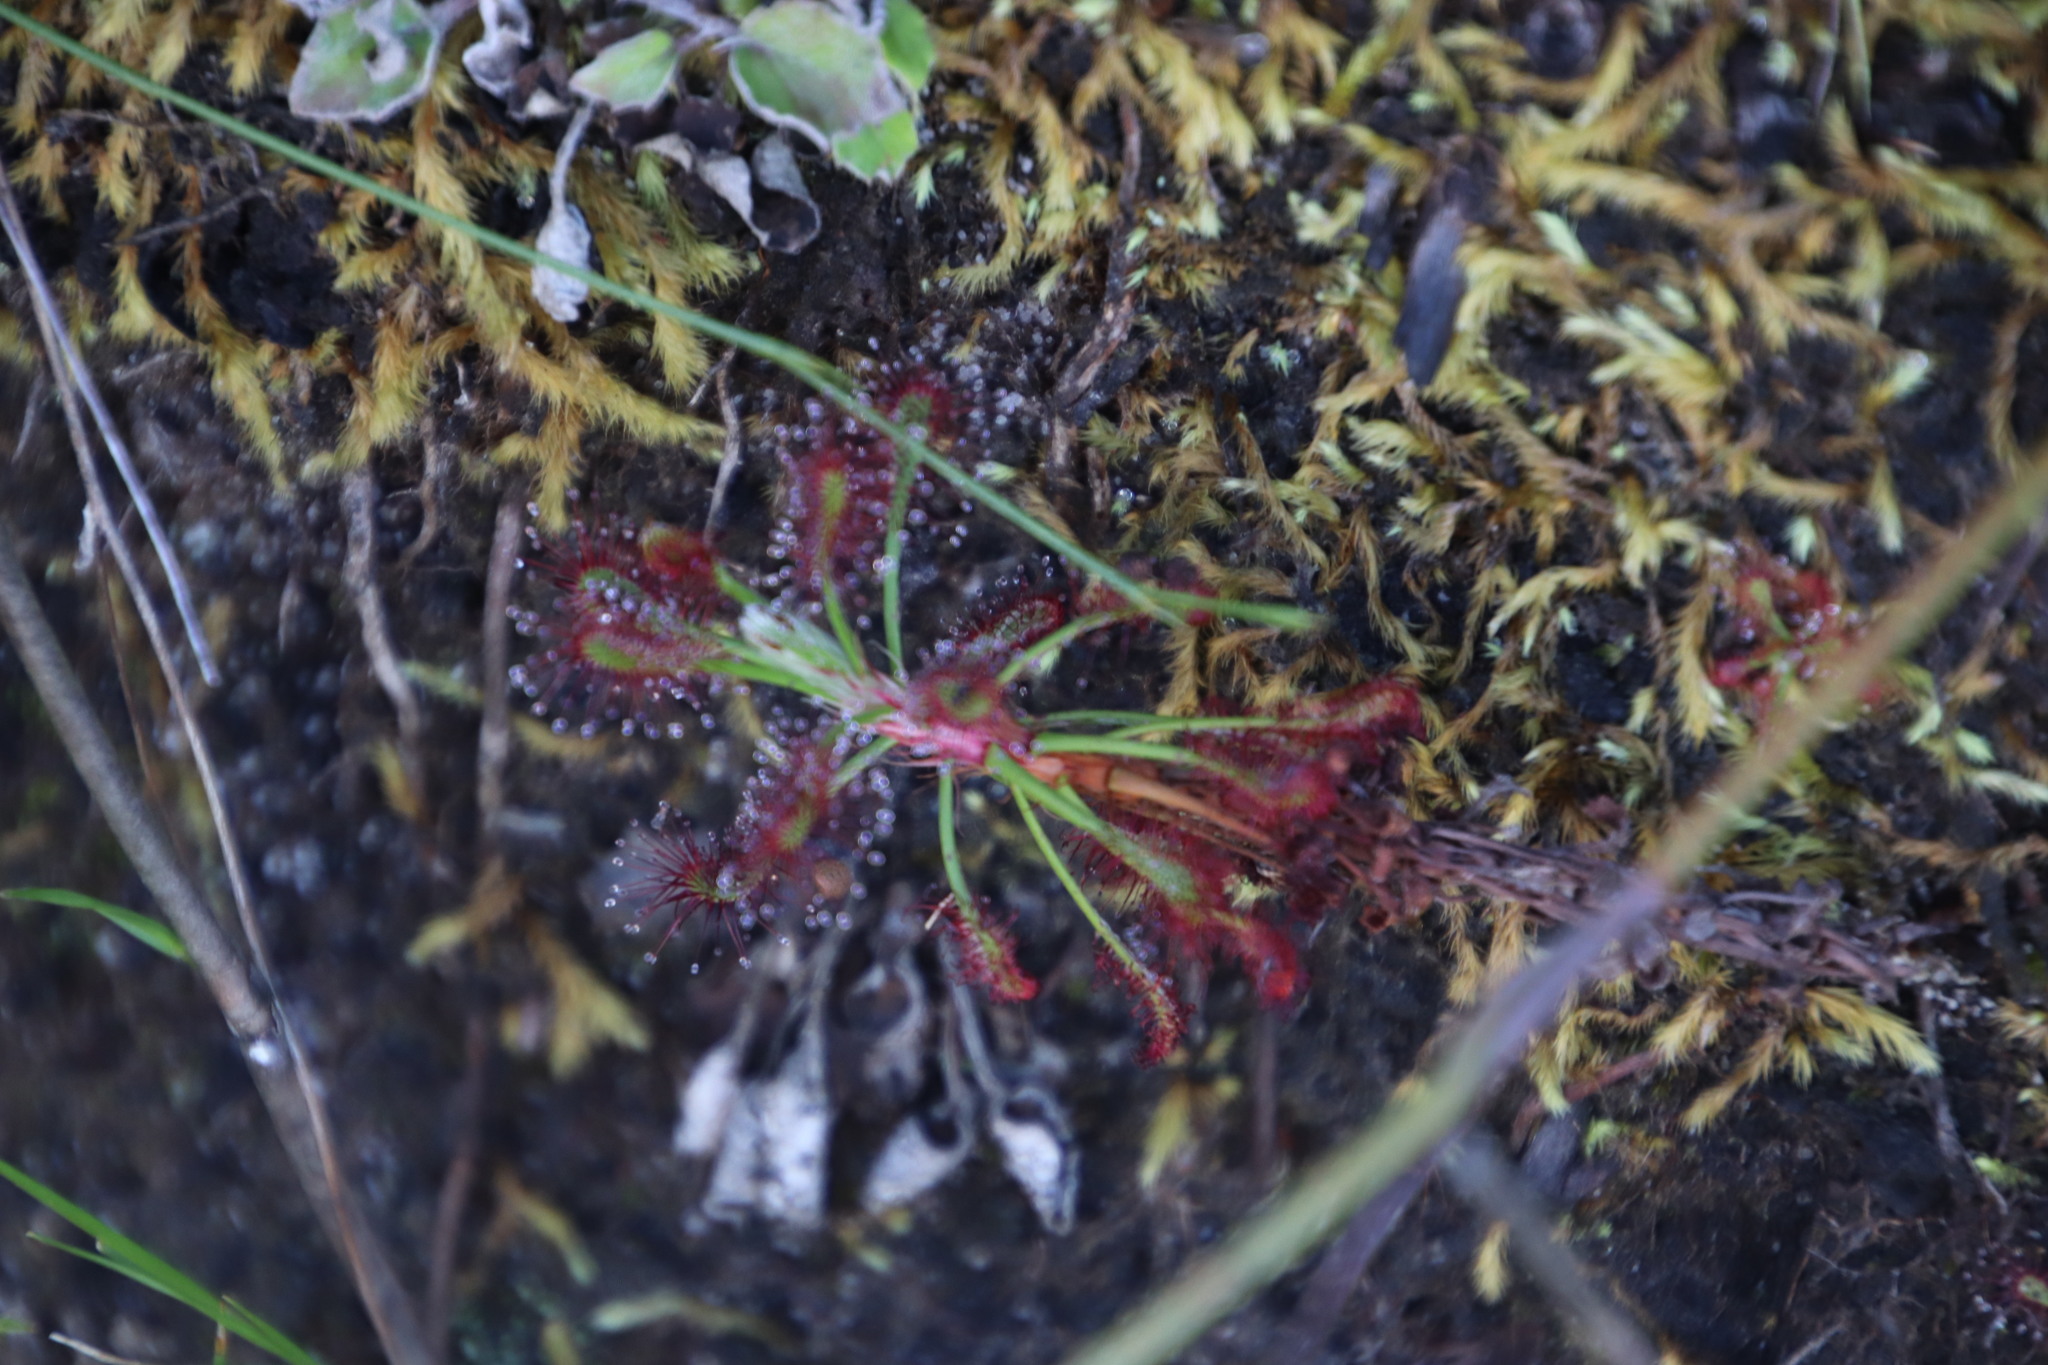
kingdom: Plantae
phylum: Tracheophyta
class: Magnoliopsida
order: Caryophyllales
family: Droseraceae
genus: Drosera
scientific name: Drosera glabripes
